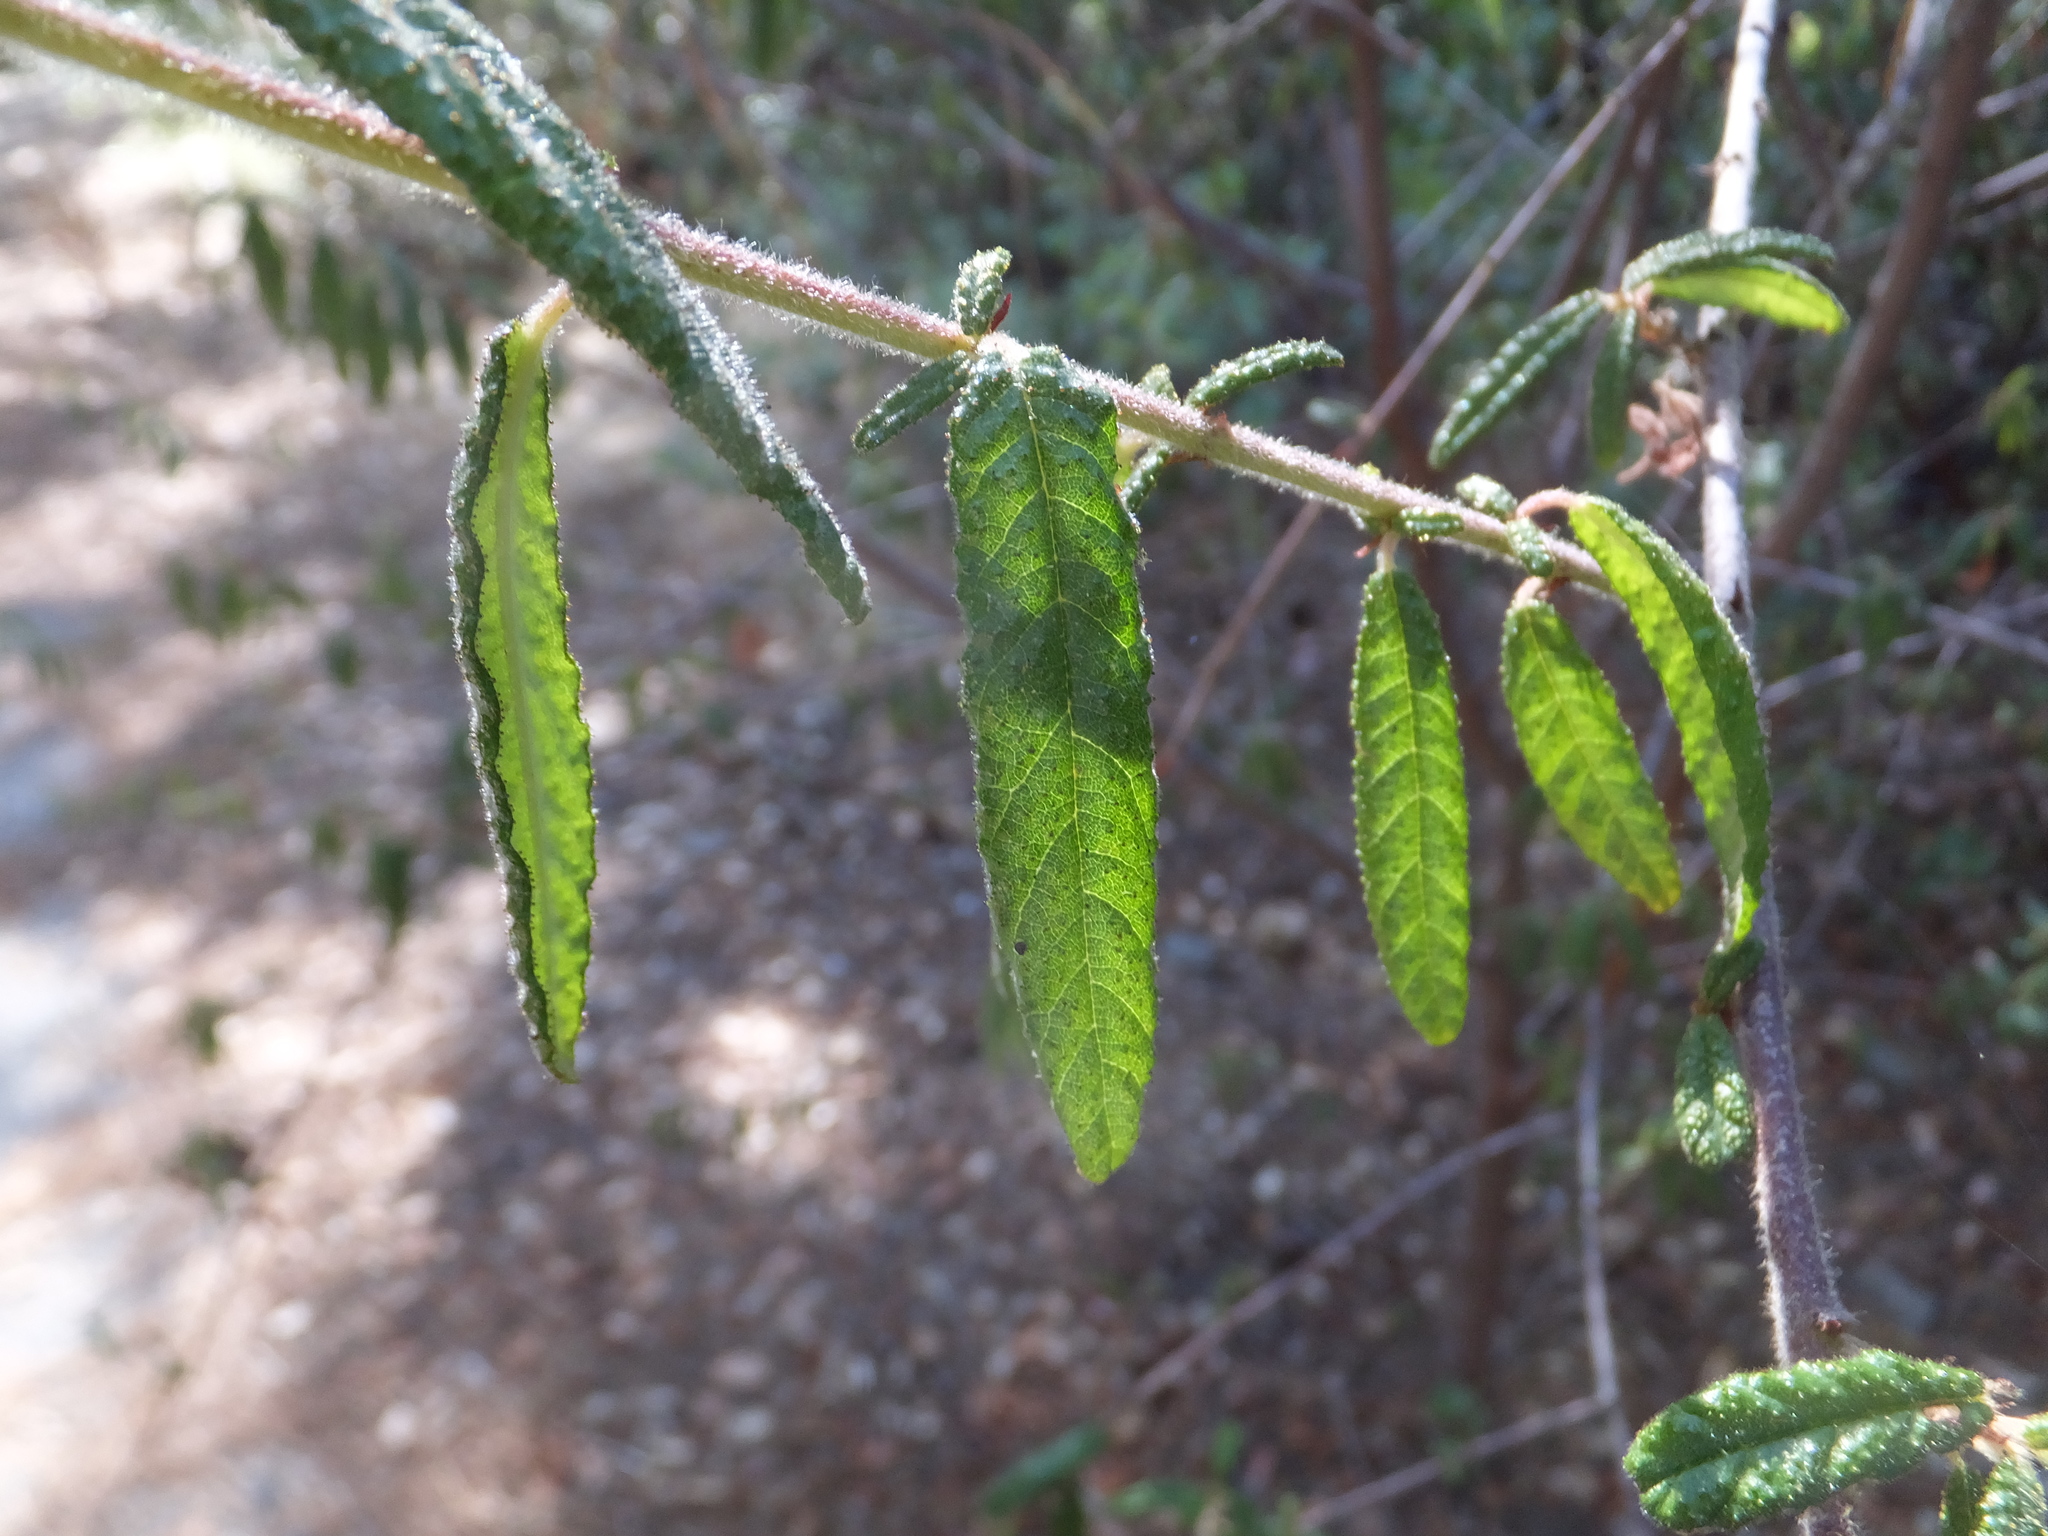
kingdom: Plantae
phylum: Tracheophyta
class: Magnoliopsida
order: Rosales
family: Rhamnaceae
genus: Ceanothus
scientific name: Ceanothus papillosus
